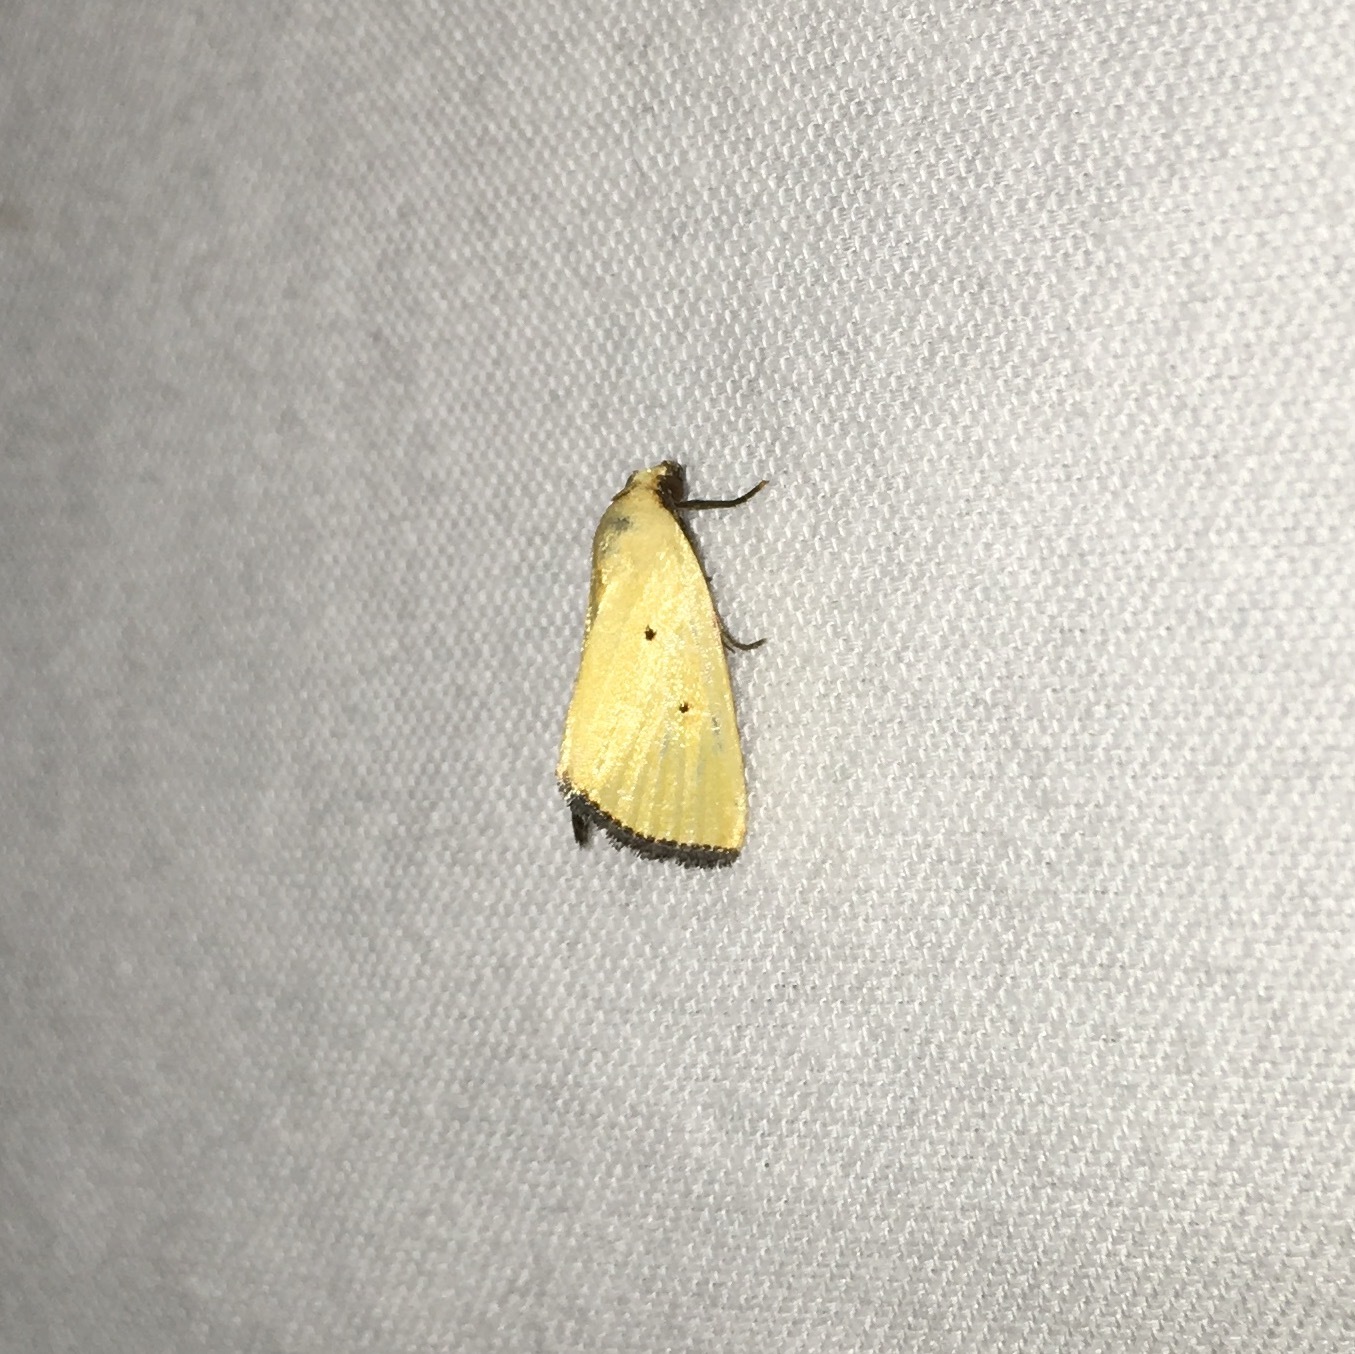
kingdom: Animalia
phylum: Arthropoda
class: Insecta
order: Lepidoptera
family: Noctuidae
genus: Marimatha
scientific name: Marimatha nigrofimbria
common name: Black-bordered lemon moth
